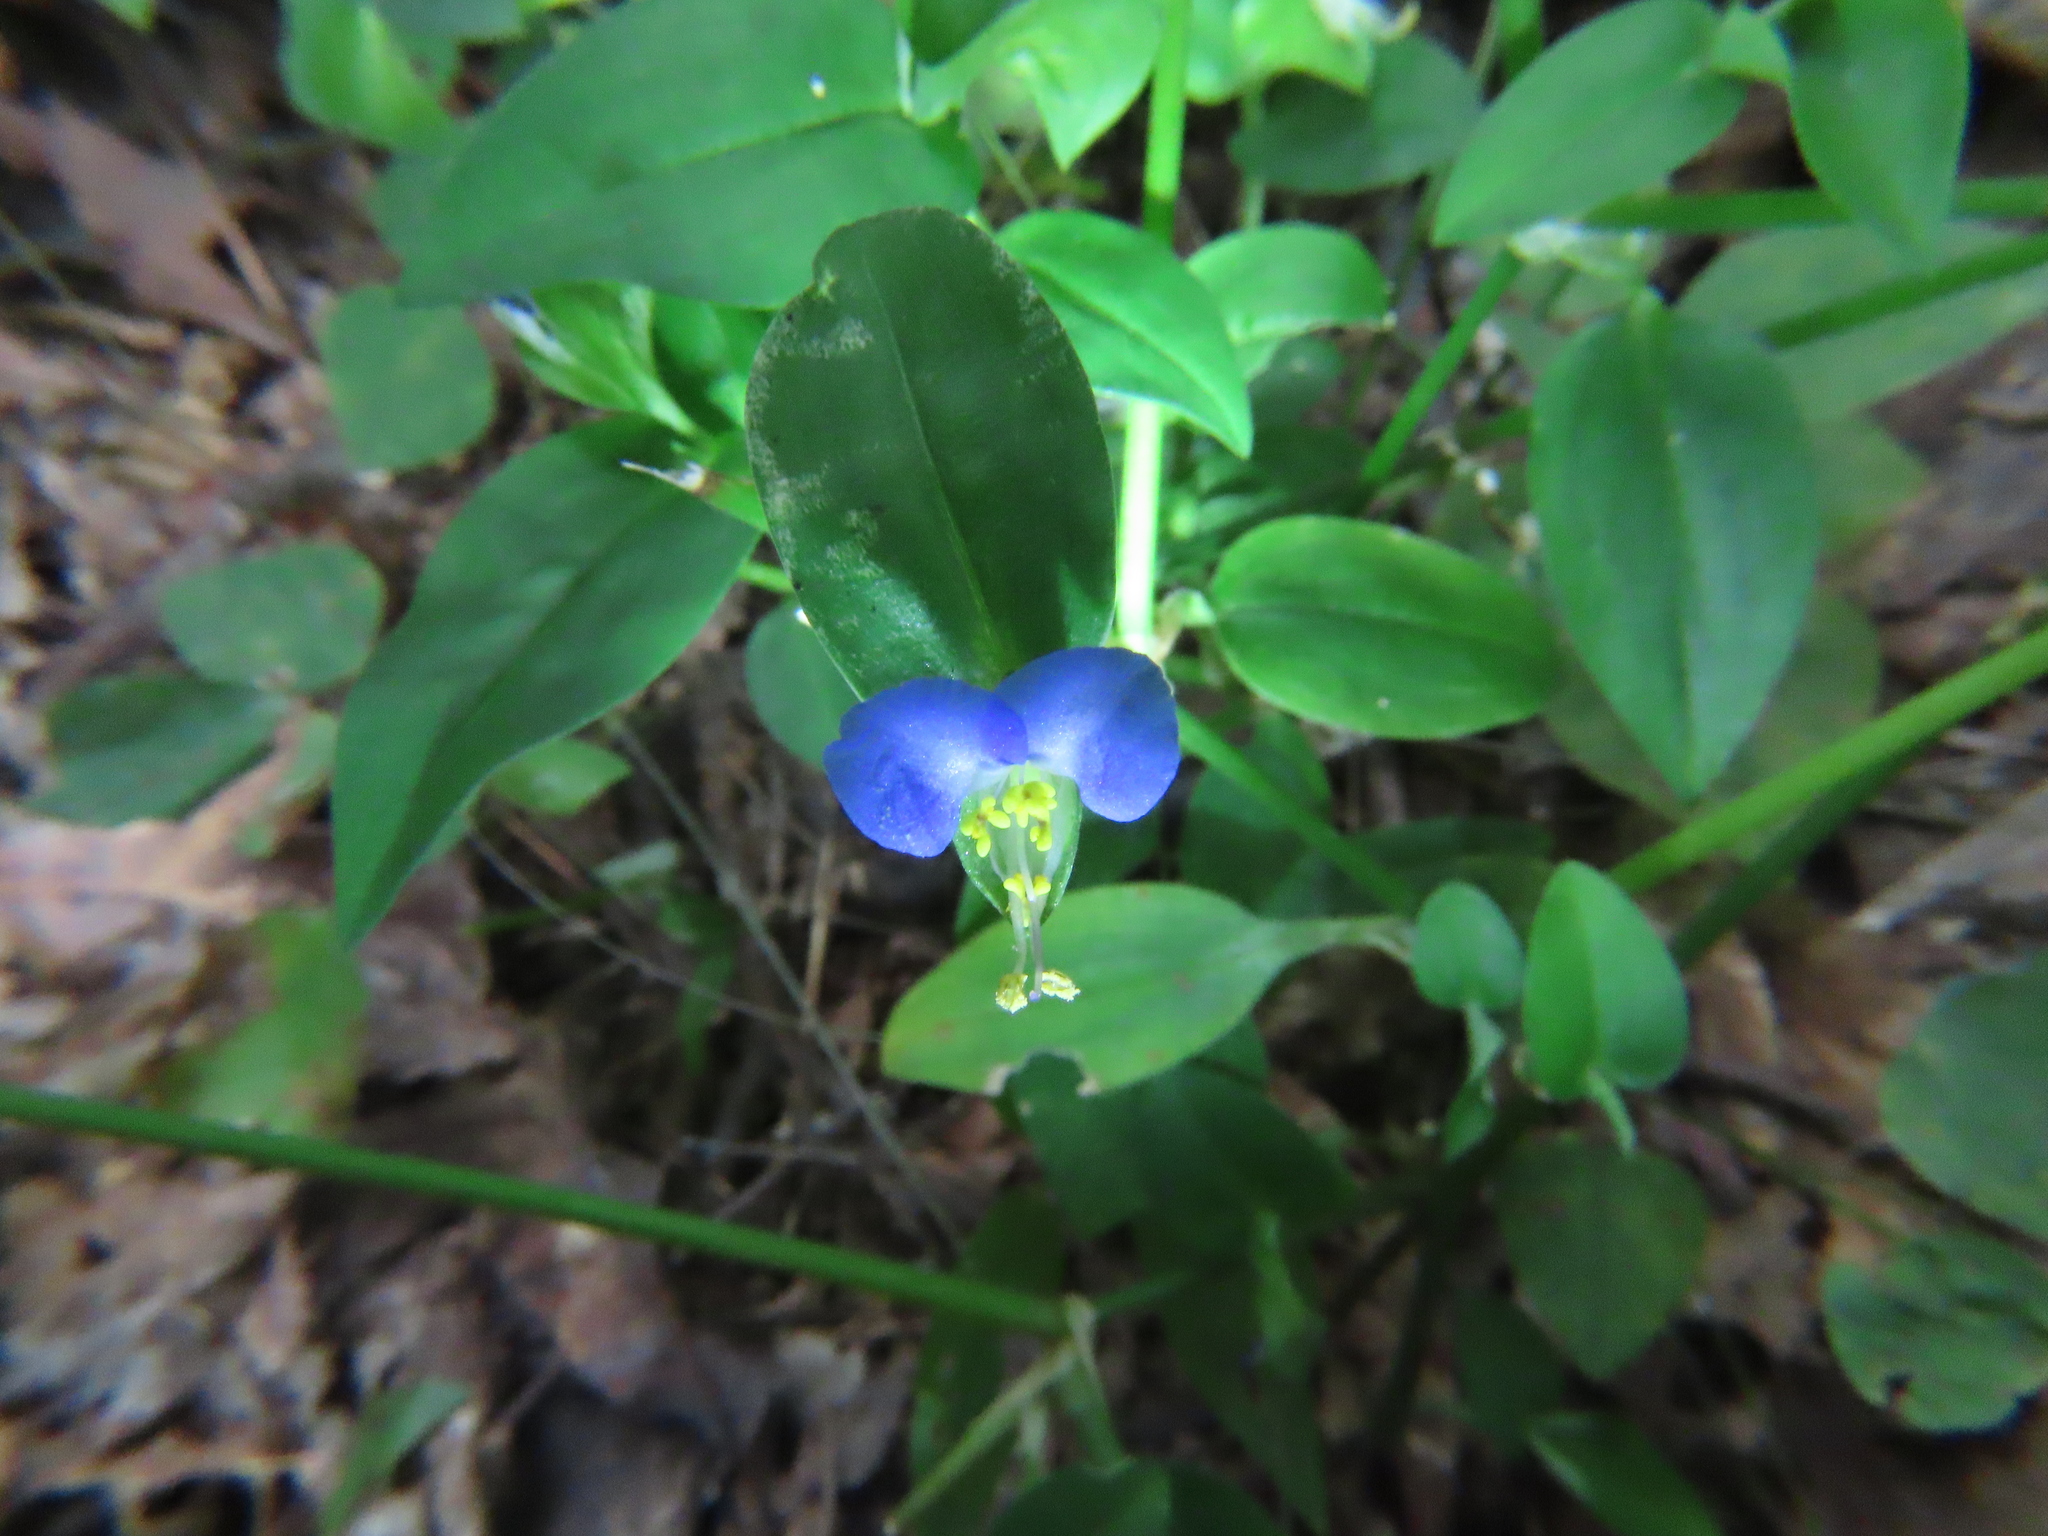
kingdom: Plantae
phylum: Tracheophyta
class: Liliopsida
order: Commelinales
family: Commelinaceae
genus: Commelina
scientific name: Commelina communis
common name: Asiatic dayflower
